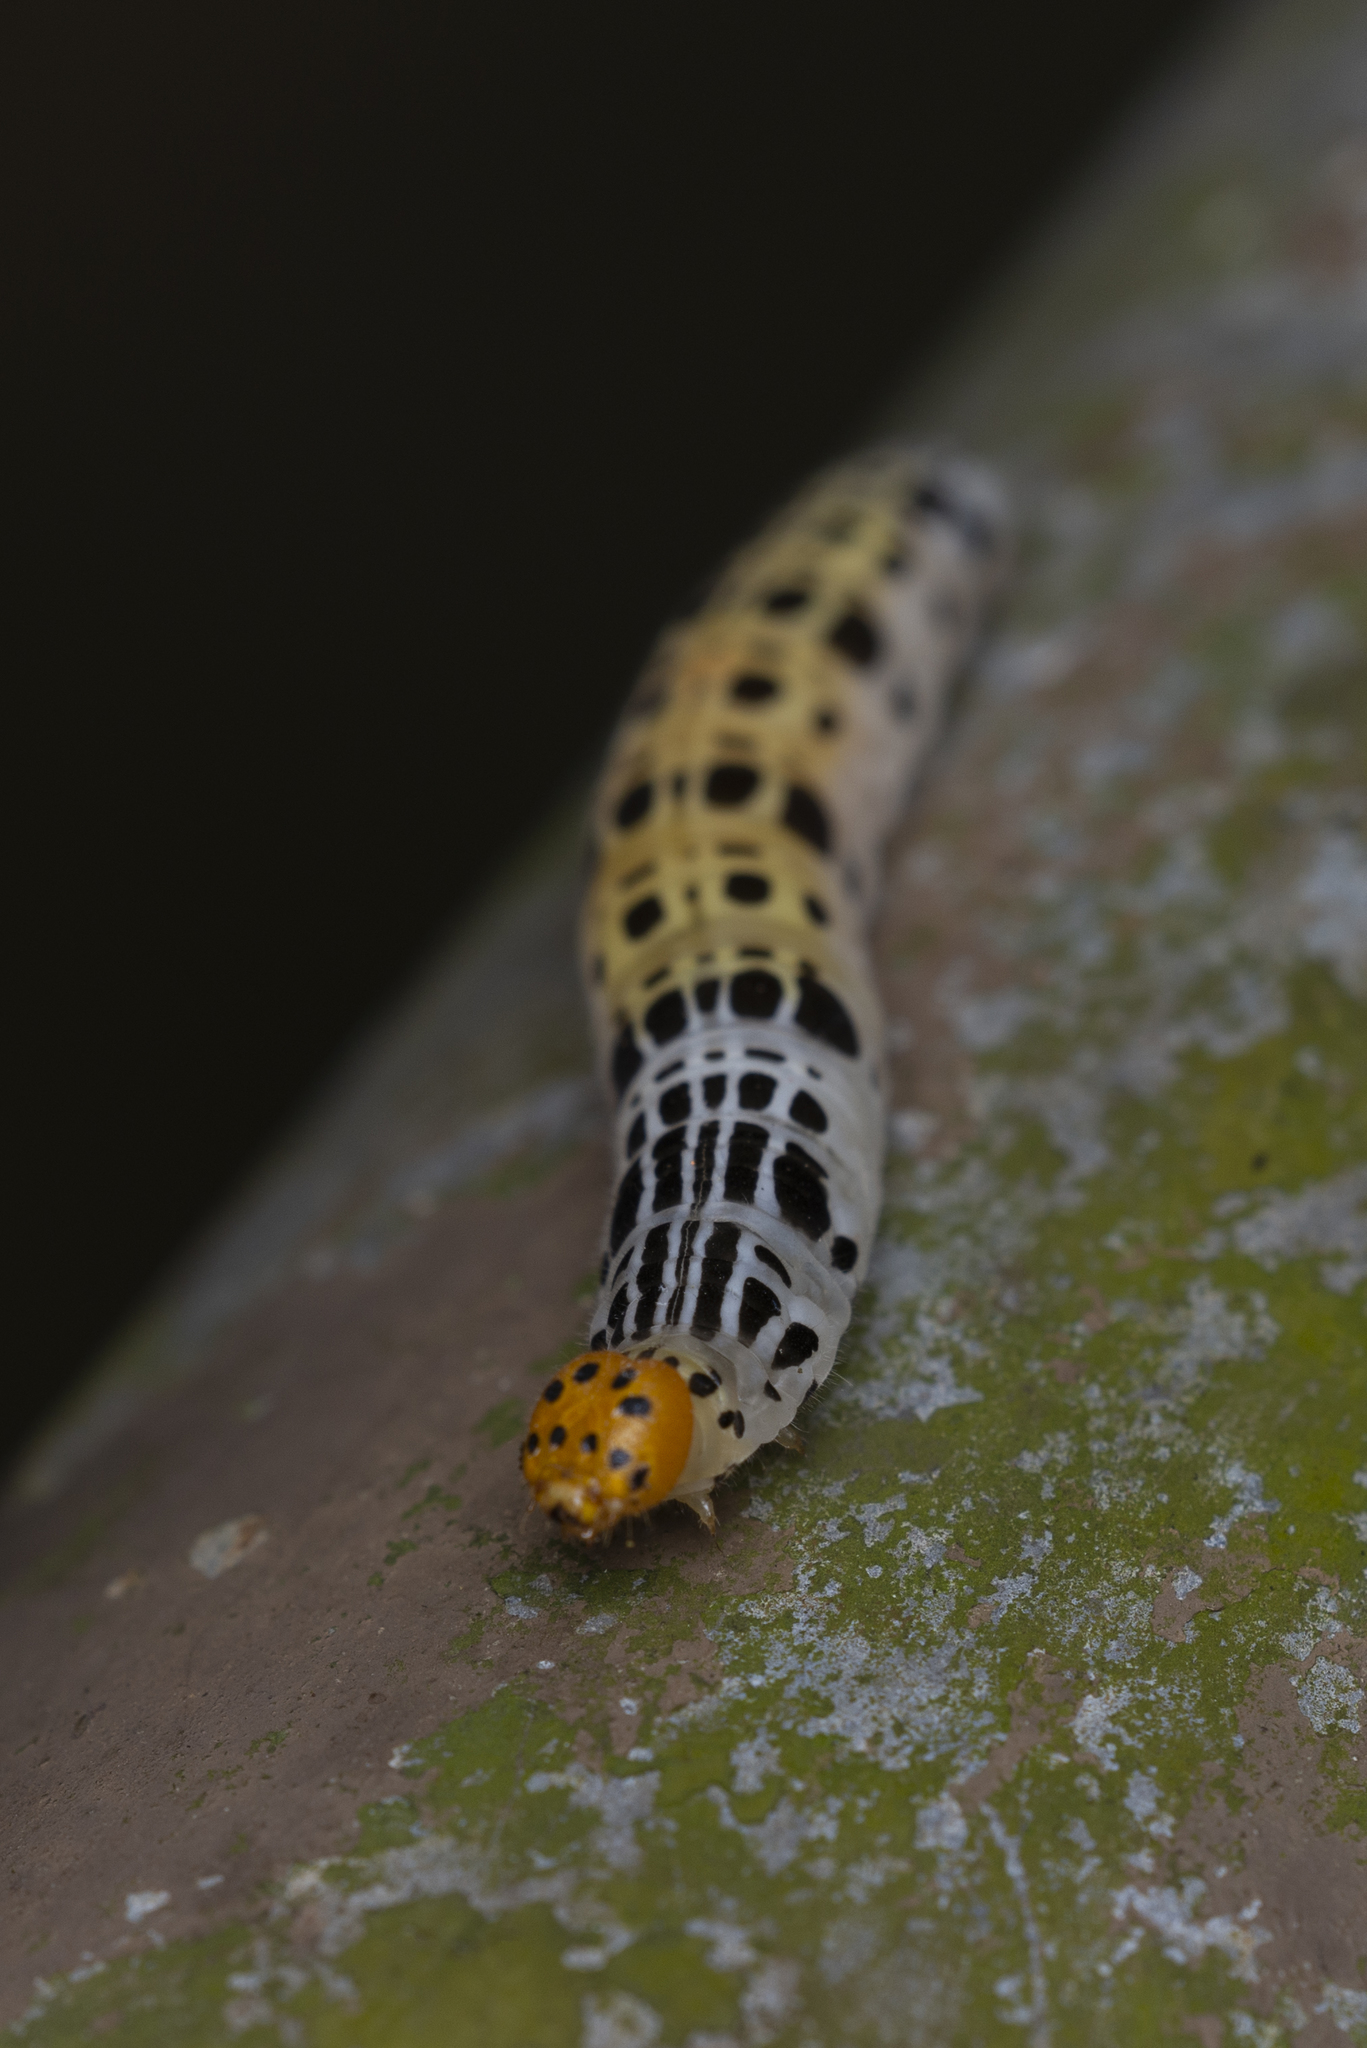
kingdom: Animalia
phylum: Arthropoda
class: Insecta
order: Lepidoptera
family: Hesperiidae
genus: Bibasis
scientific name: Bibasis gomata
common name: Pale green awlet
